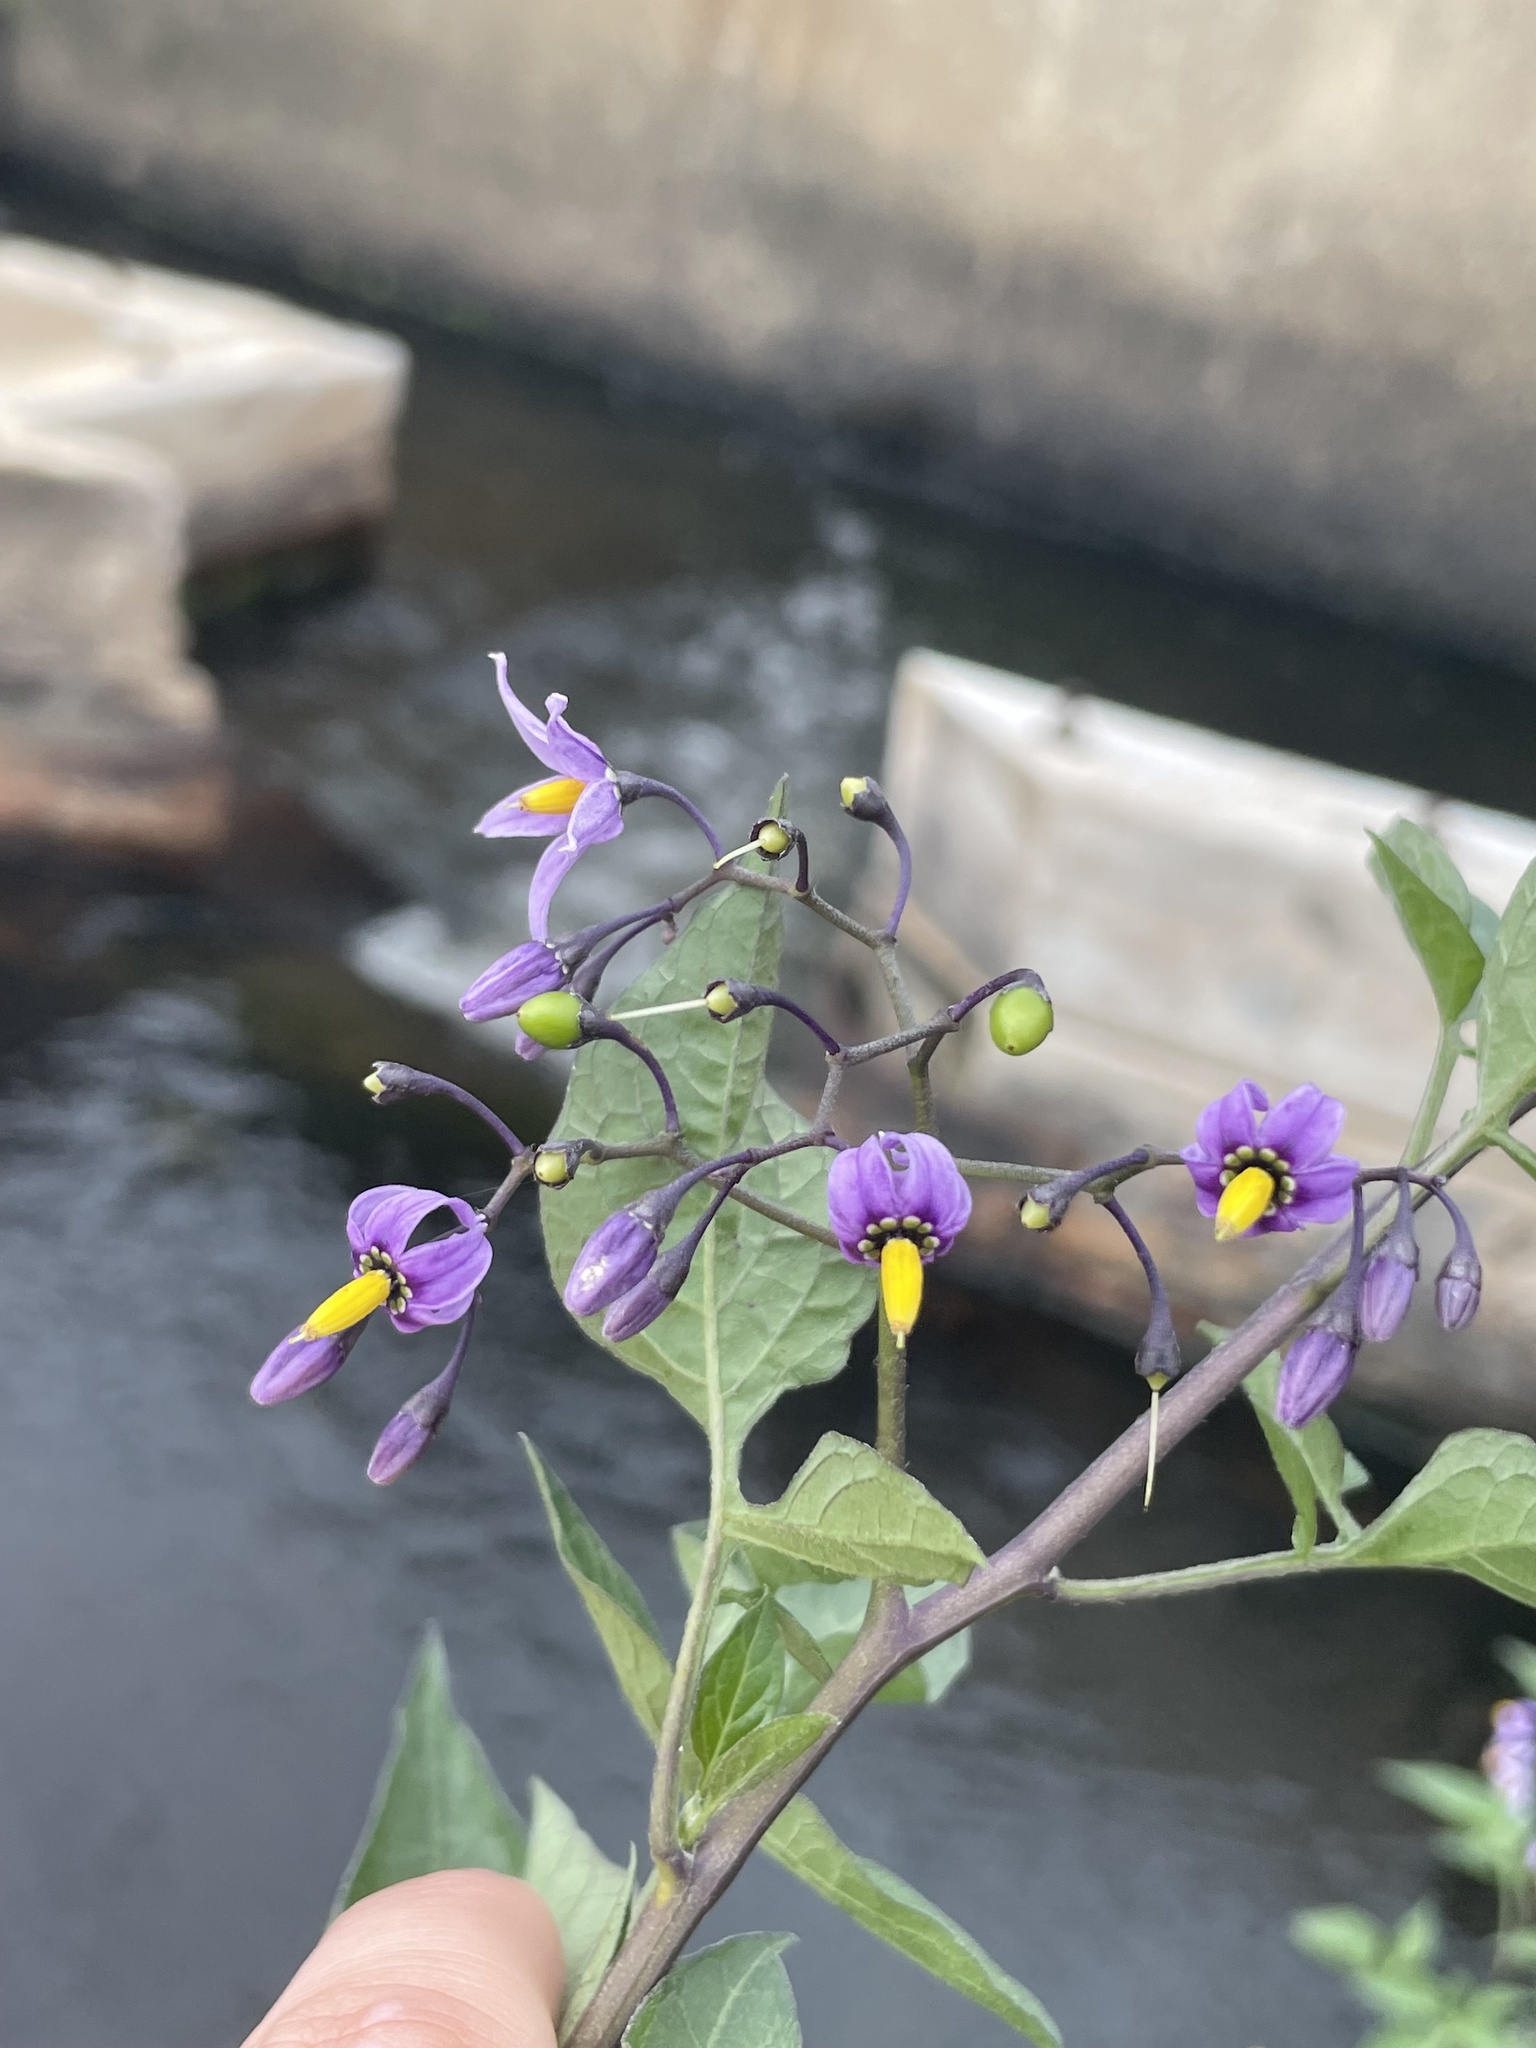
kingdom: Plantae
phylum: Tracheophyta
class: Magnoliopsida
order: Solanales
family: Solanaceae
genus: Solanum
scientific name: Solanum dulcamara
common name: Climbing nightshade
